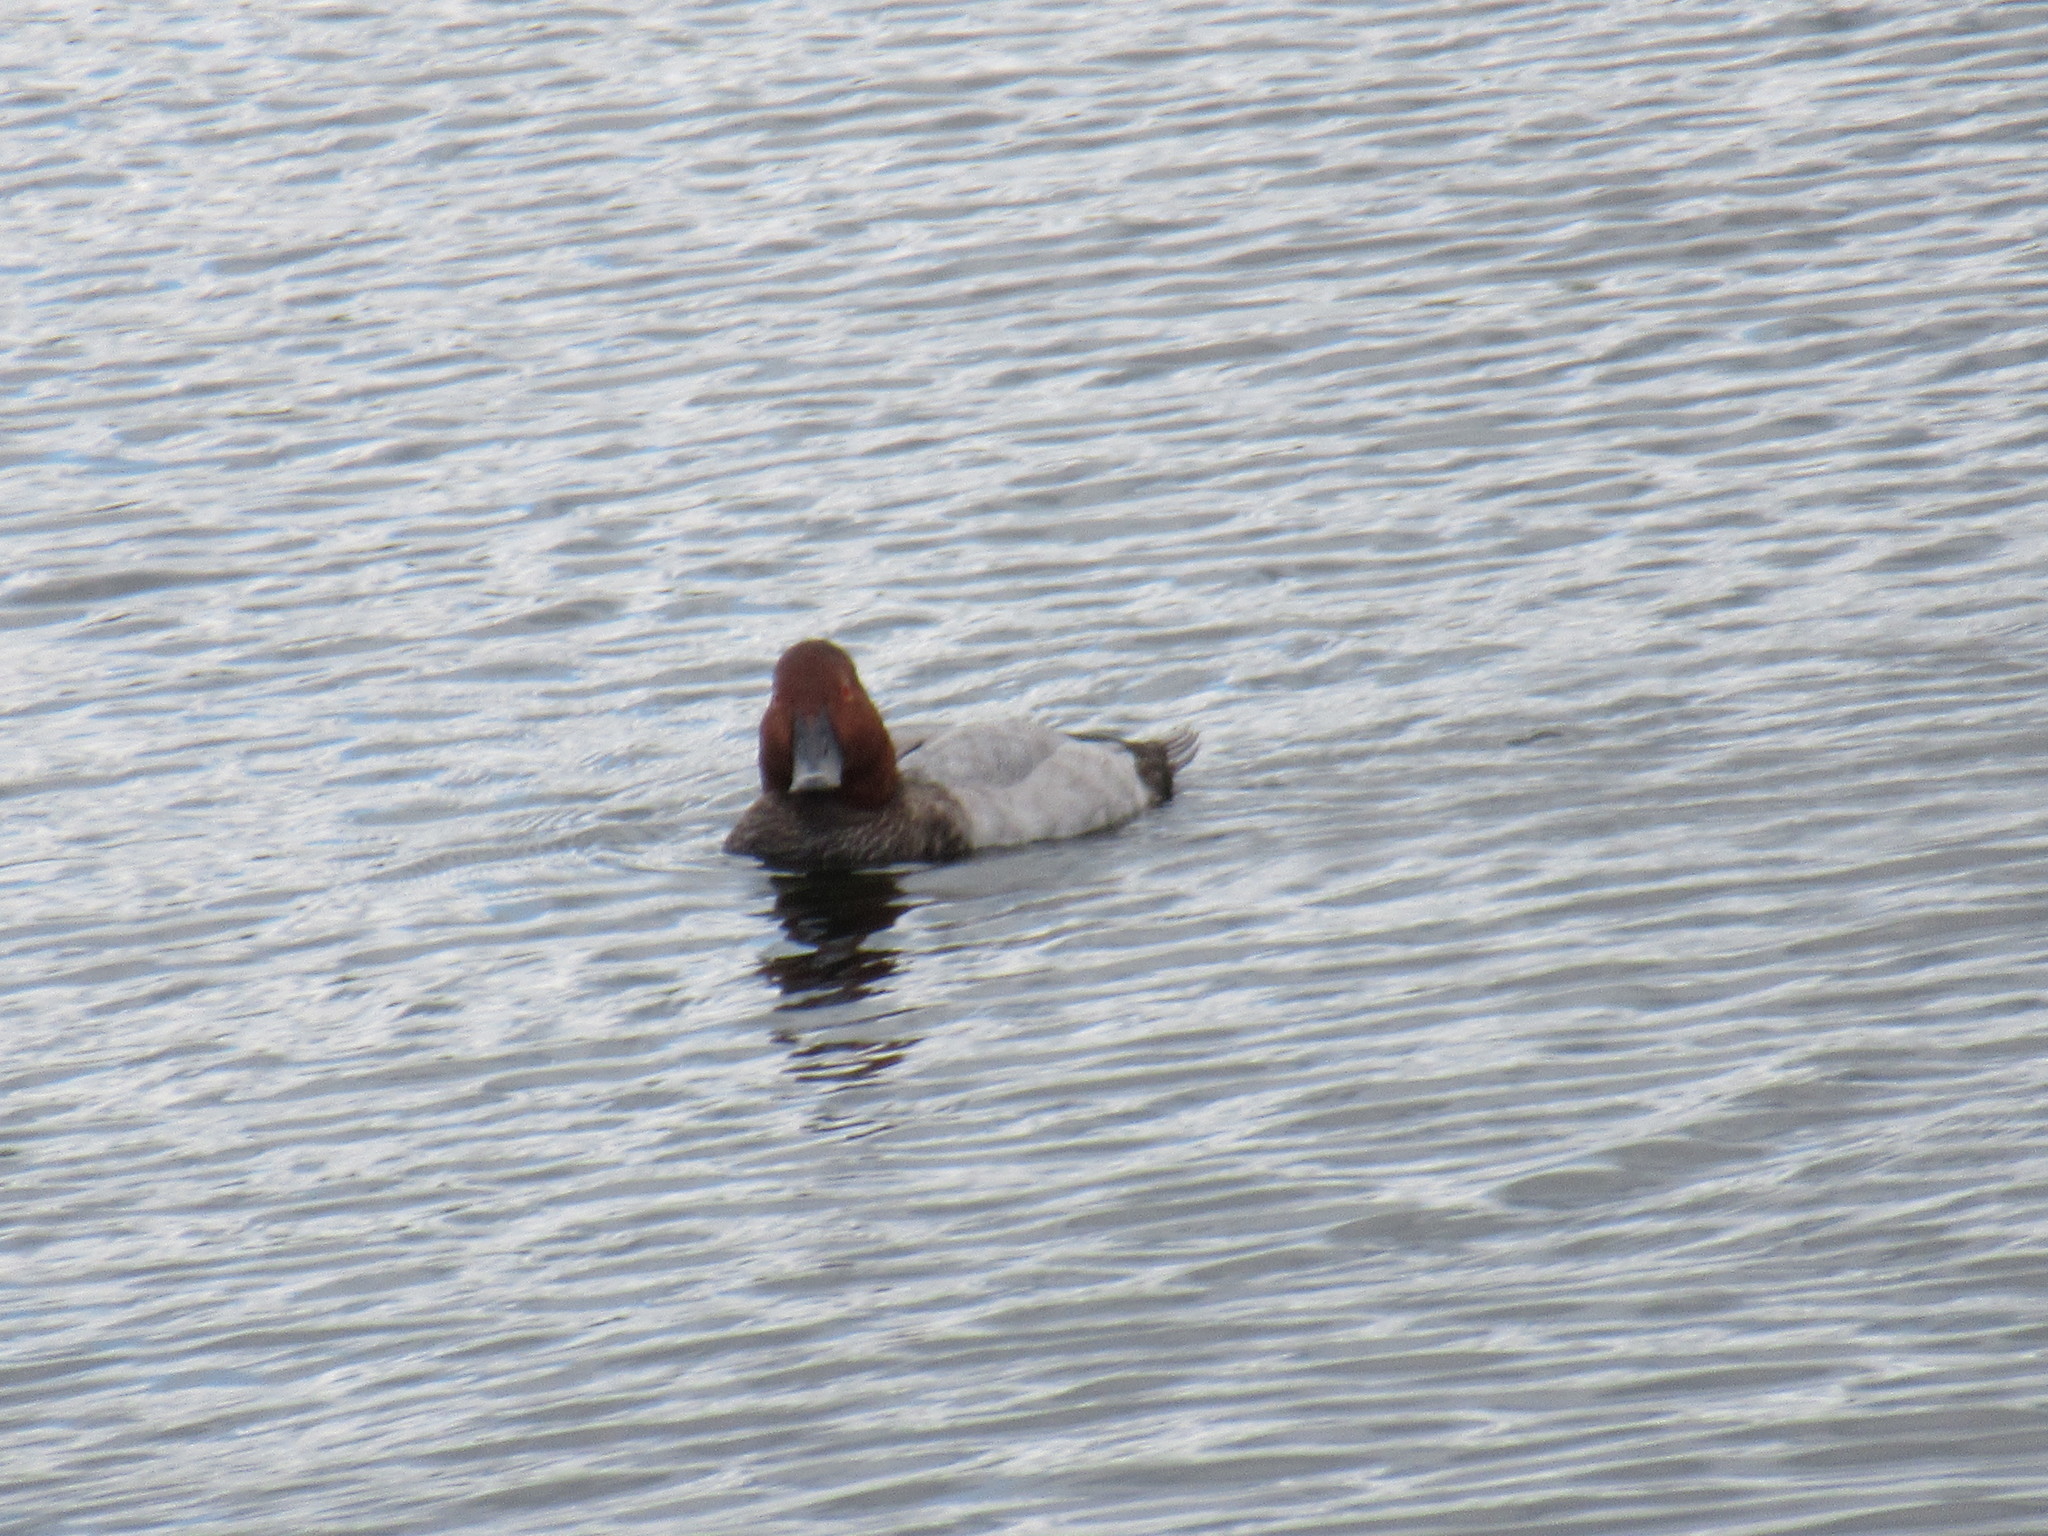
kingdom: Animalia
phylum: Chordata
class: Aves
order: Anseriformes
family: Anatidae
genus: Aythya
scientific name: Aythya ferina
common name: Common pochard
